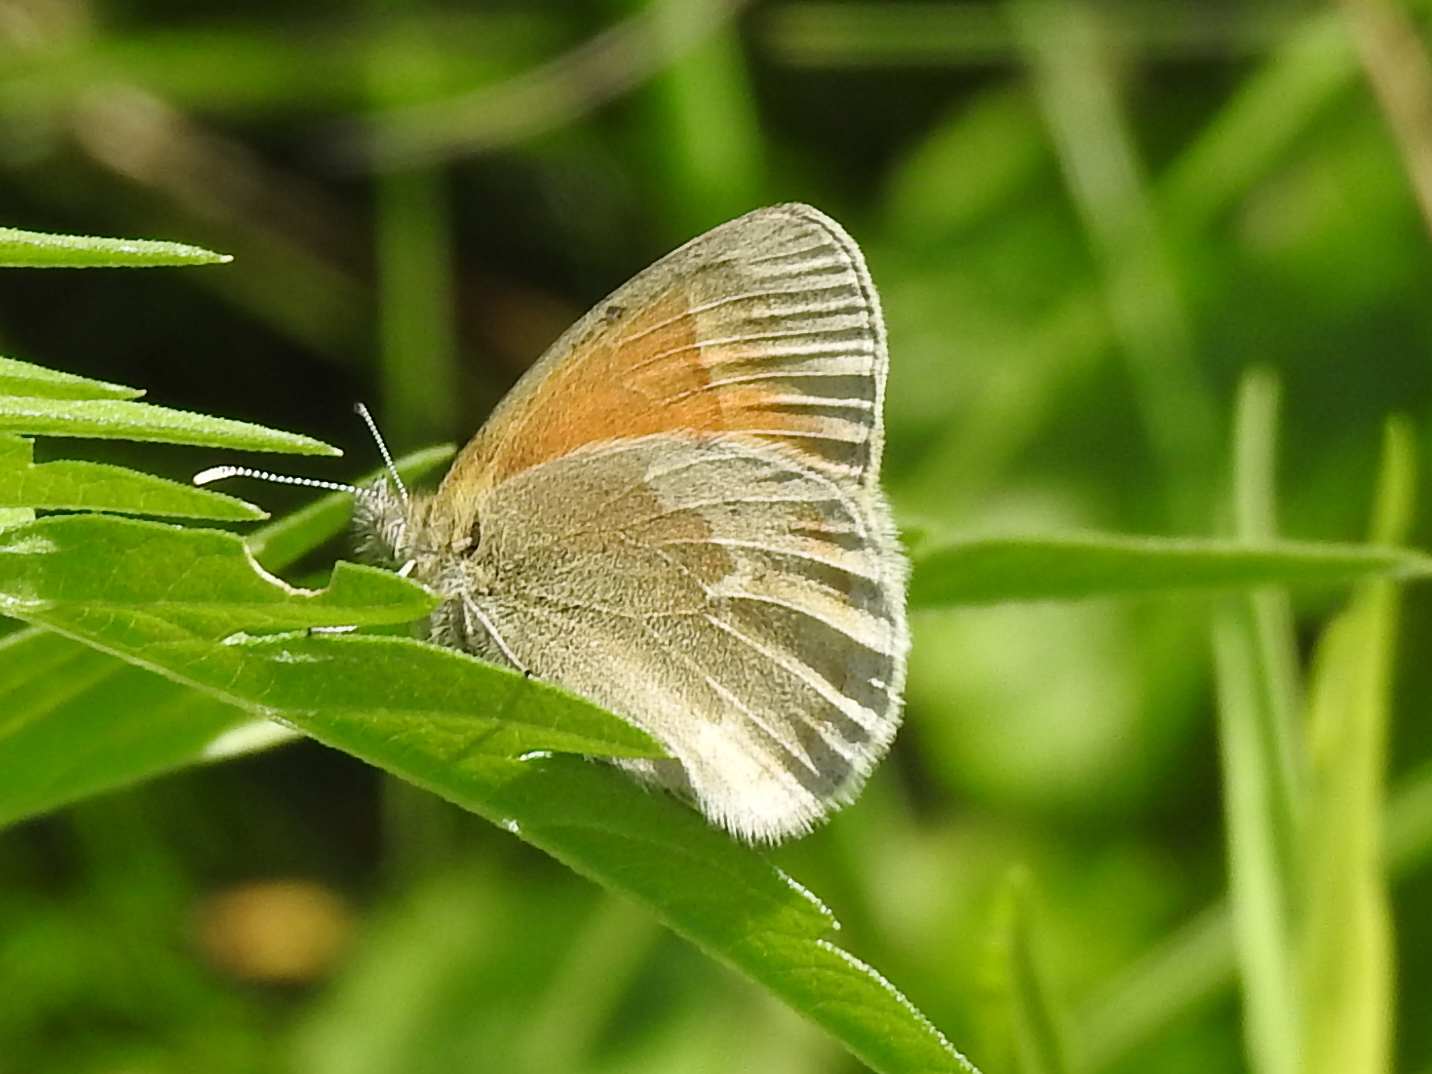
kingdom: Animalia
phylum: Arthropoda
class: Insecta
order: Lepidoptera
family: Nymphalidae
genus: Coenonympha
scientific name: Coenonympha california
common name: Common ringlet
